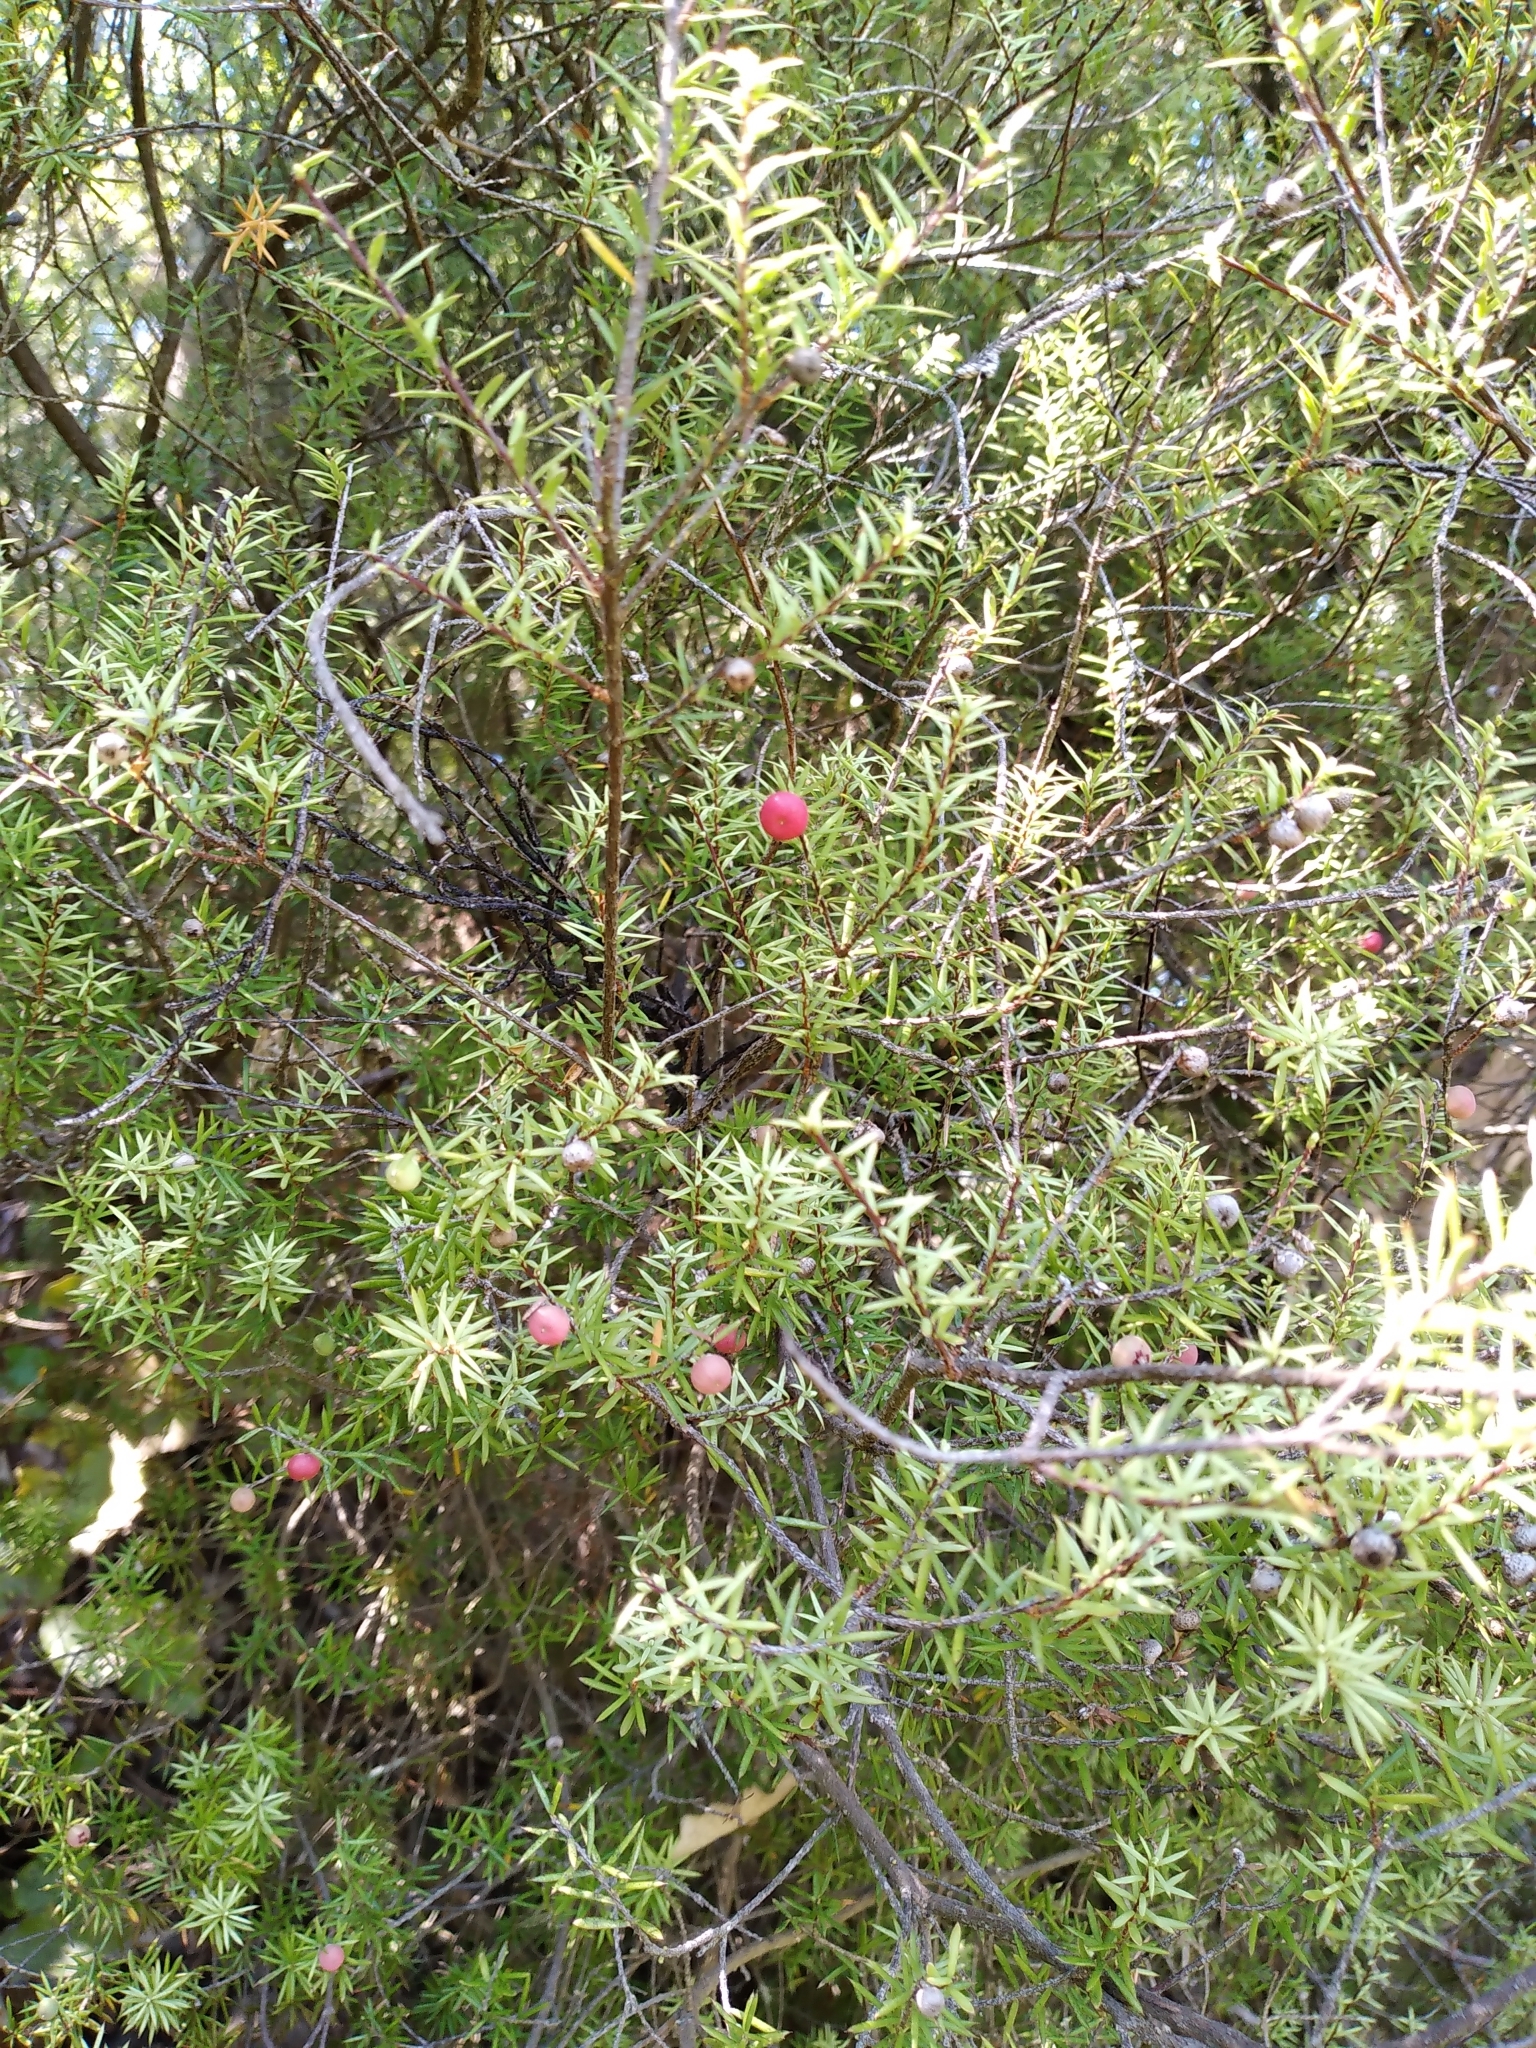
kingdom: Plantae
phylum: Tracheophyta
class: Magnoliopsida
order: Ericales
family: Ericaceae
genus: Leptecophylla
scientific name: Leptecophylla juniperina
